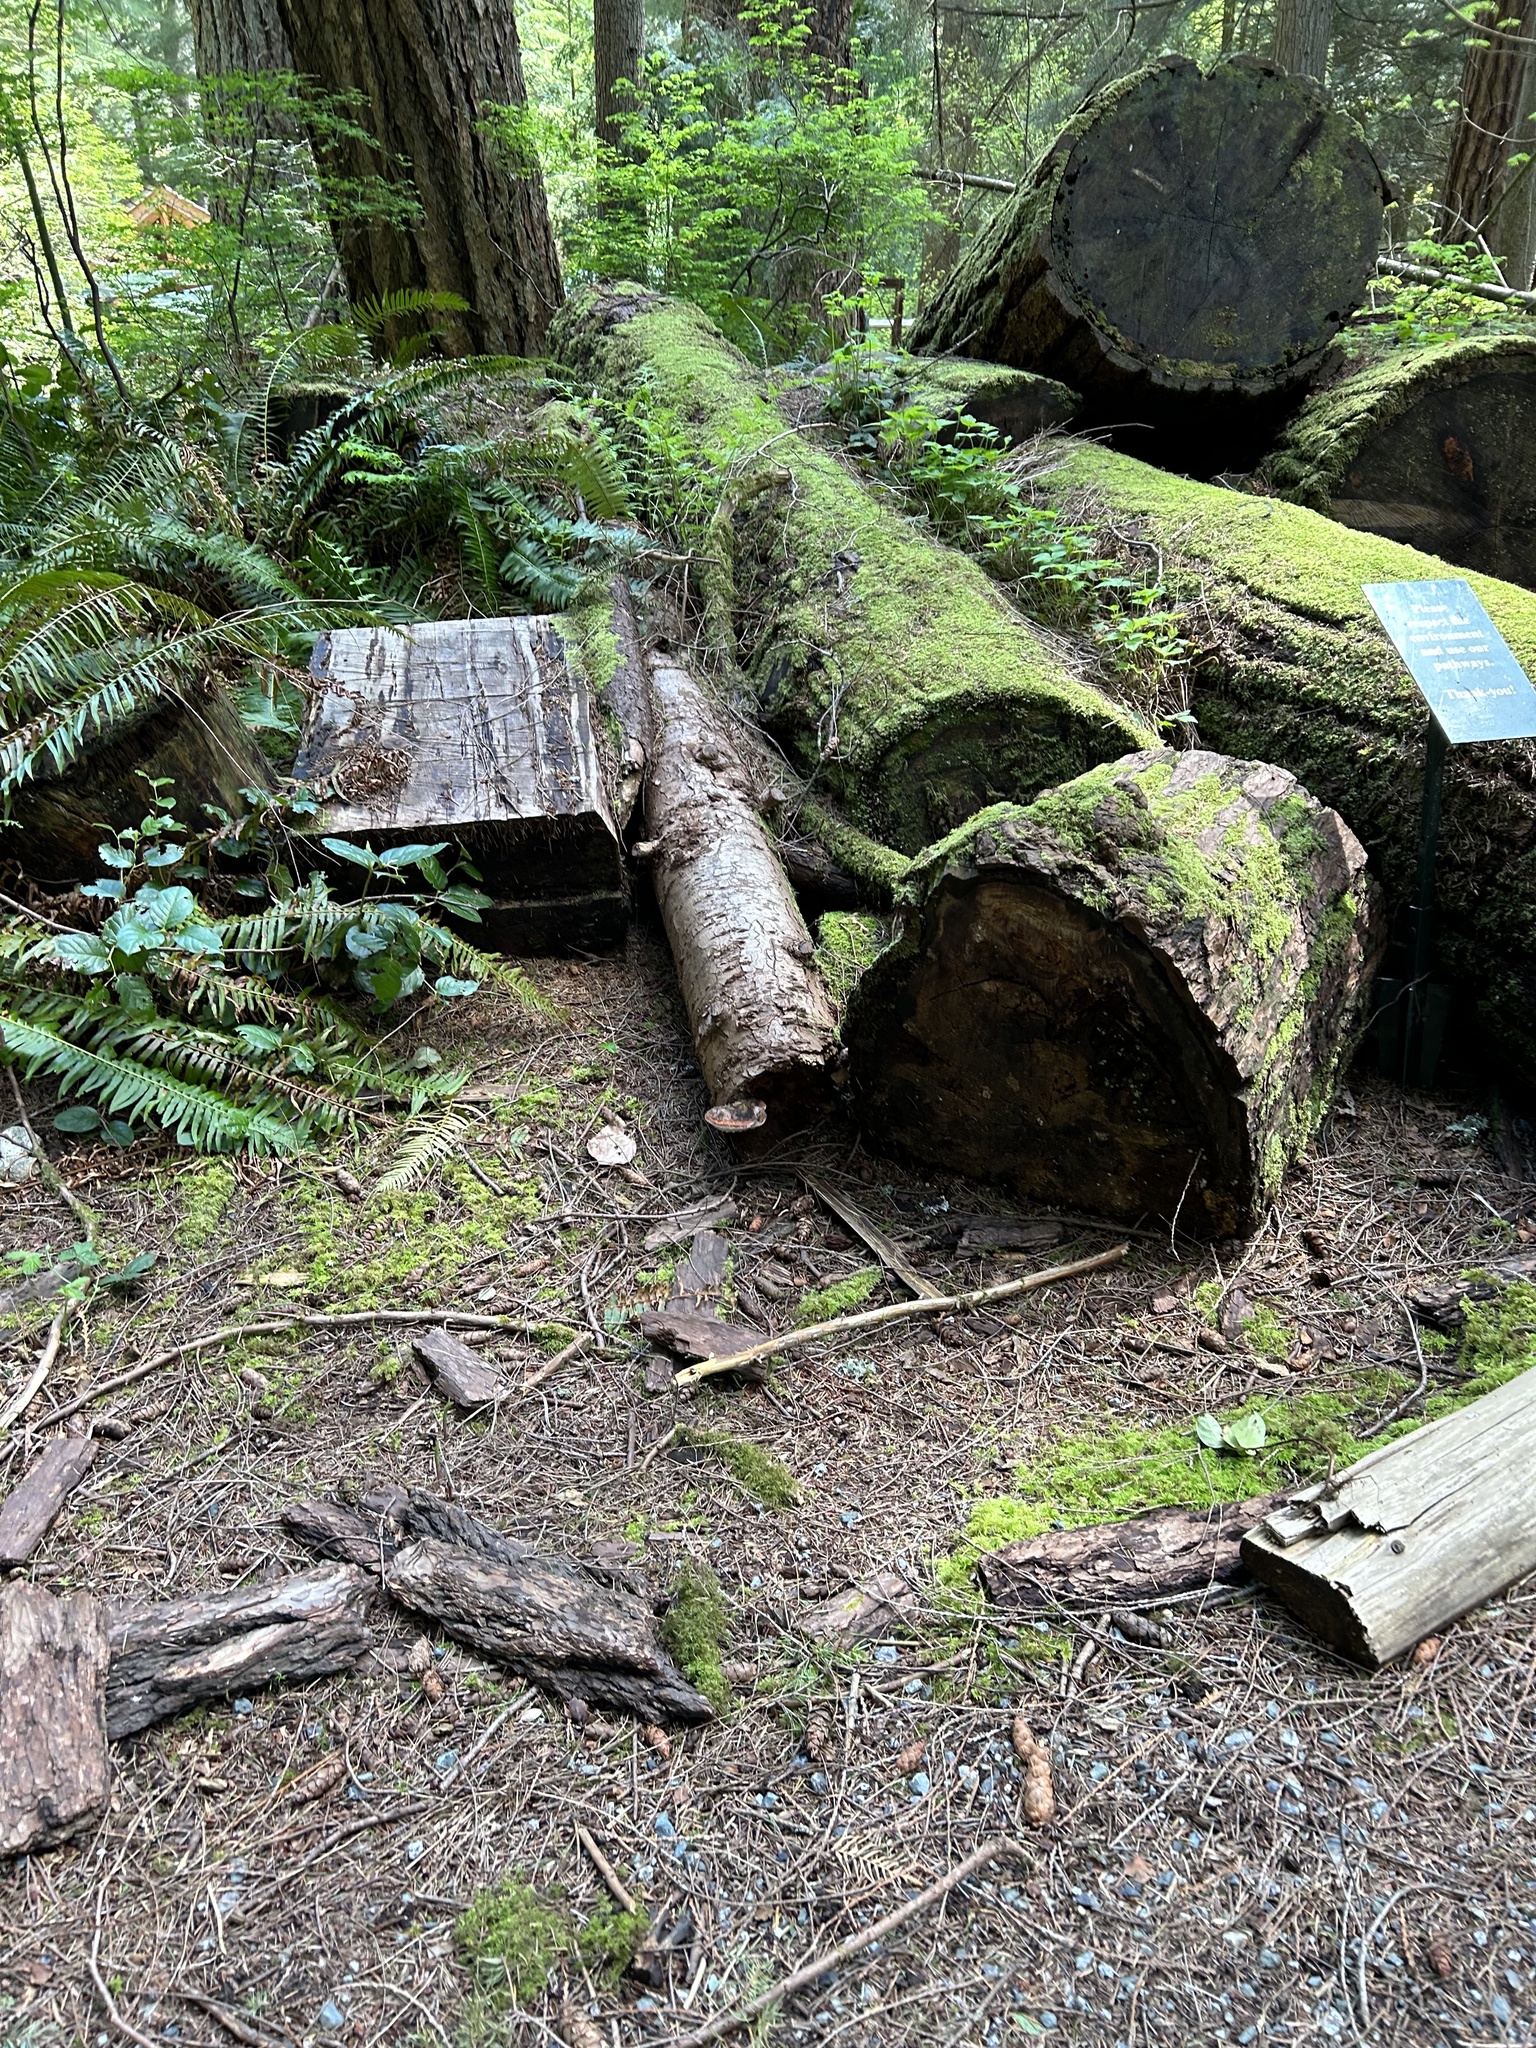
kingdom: Fungi
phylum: Basidiomycota
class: Agaricomycetes
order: Polyporales
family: Fomitopsidaceae
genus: Fomitopsis
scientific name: Fomitopsis mounceae
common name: Northern red belt
